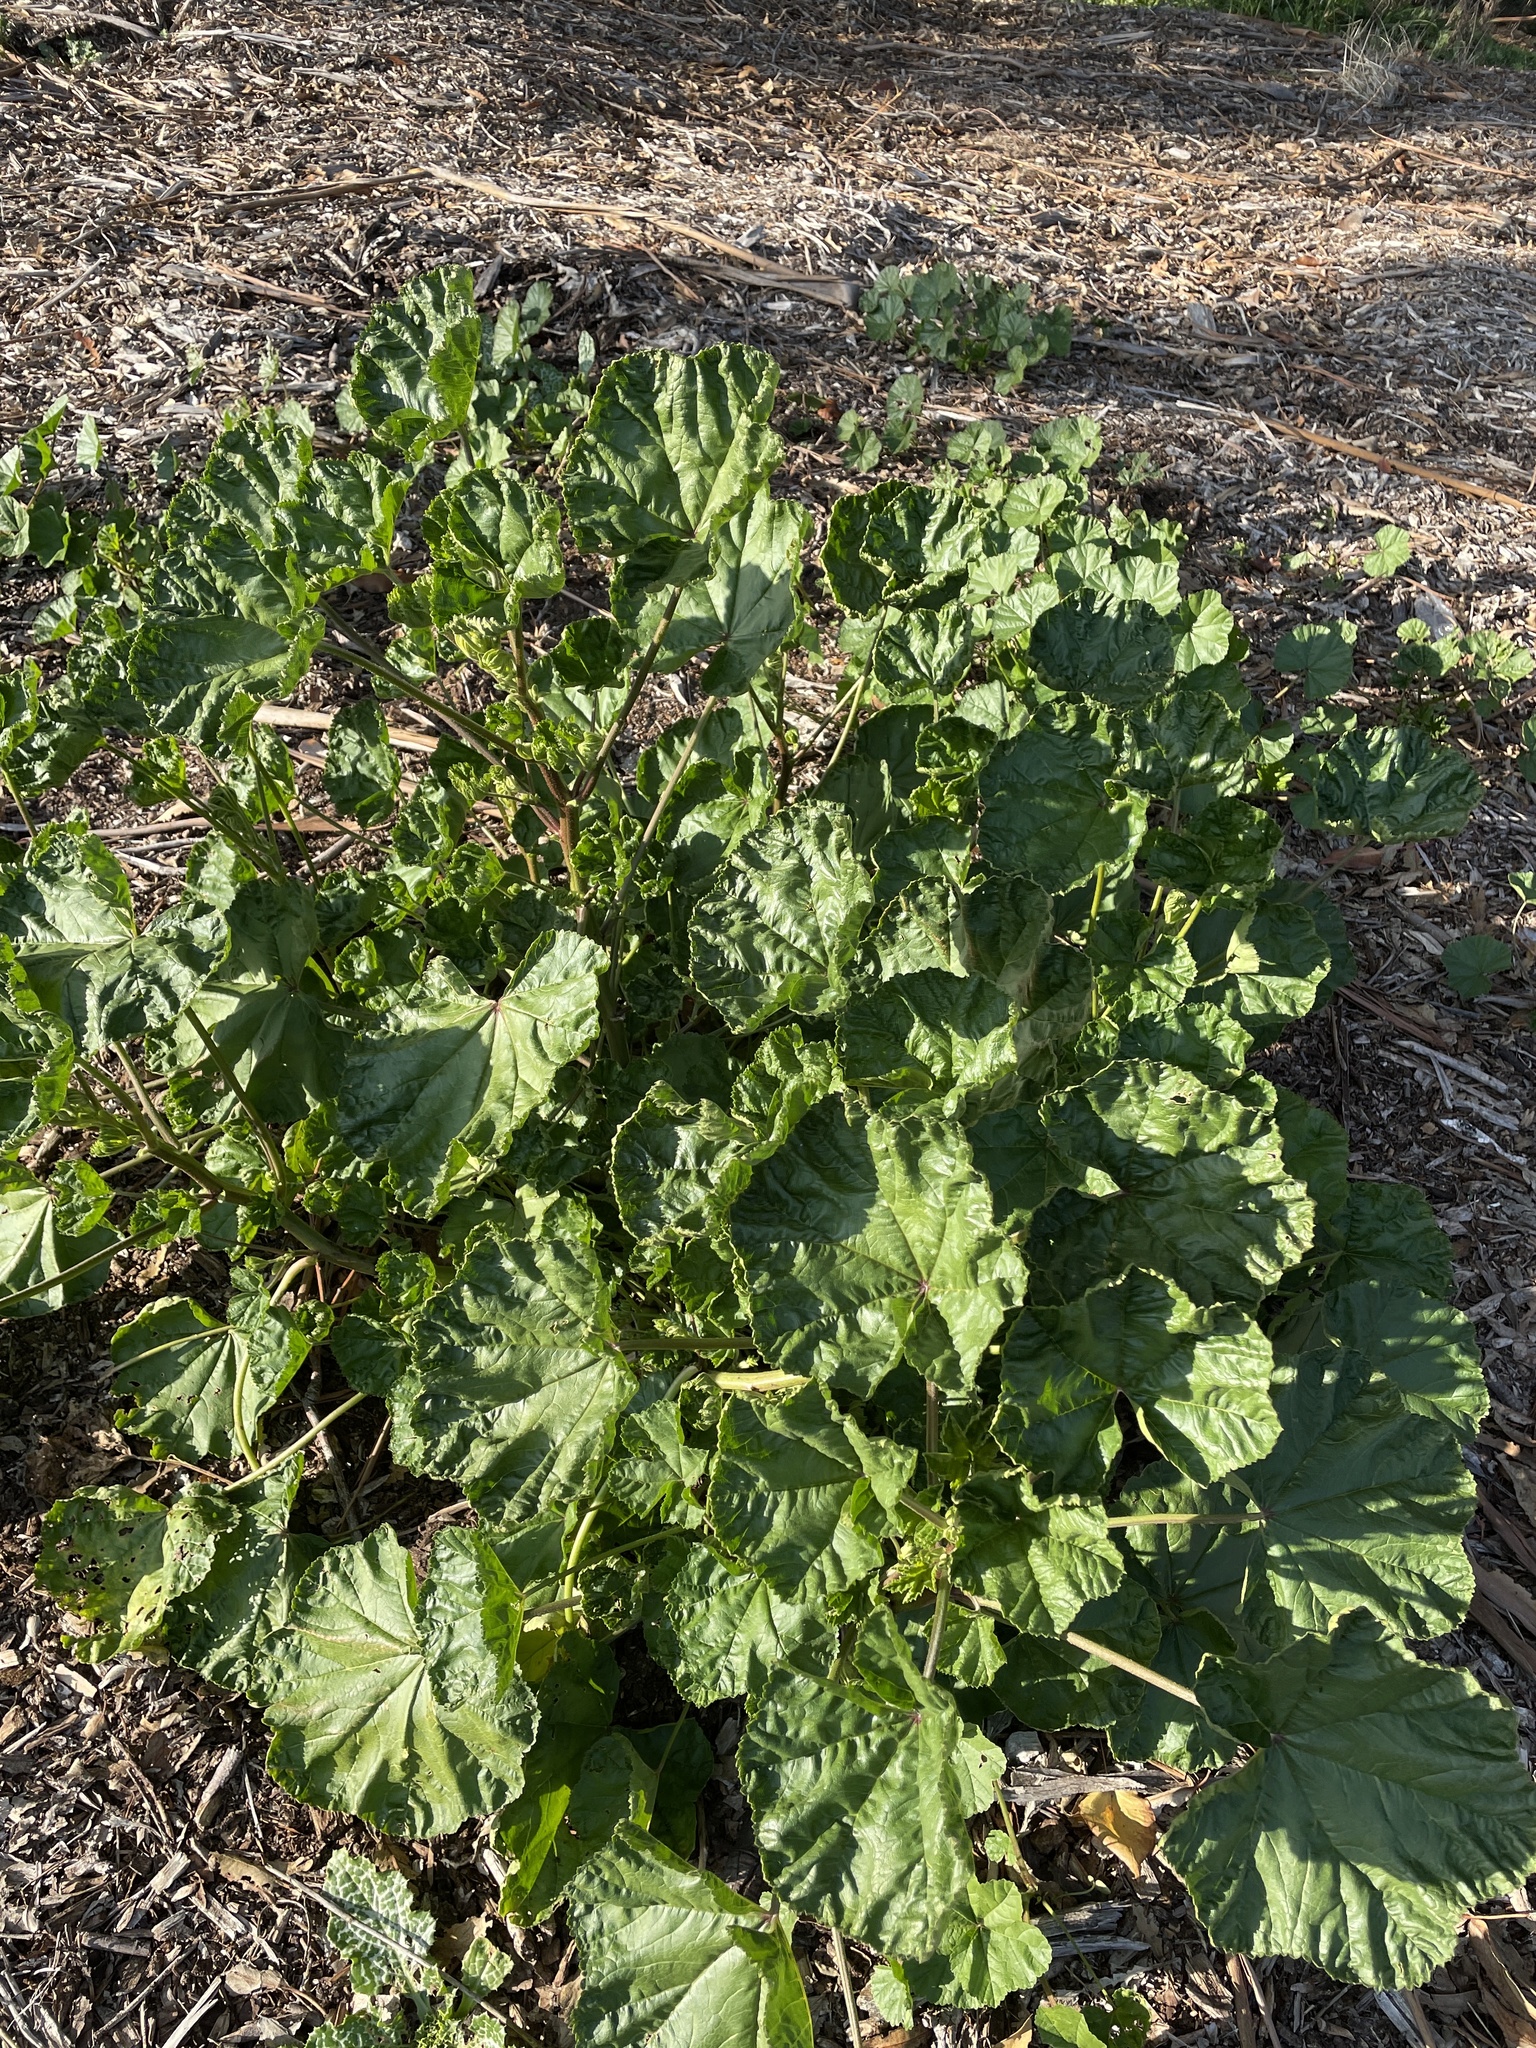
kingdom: Plantae
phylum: Tracheophyta
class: Magnoliopsida
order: Malvales
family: Malvaceae
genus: Malva
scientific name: Malva
